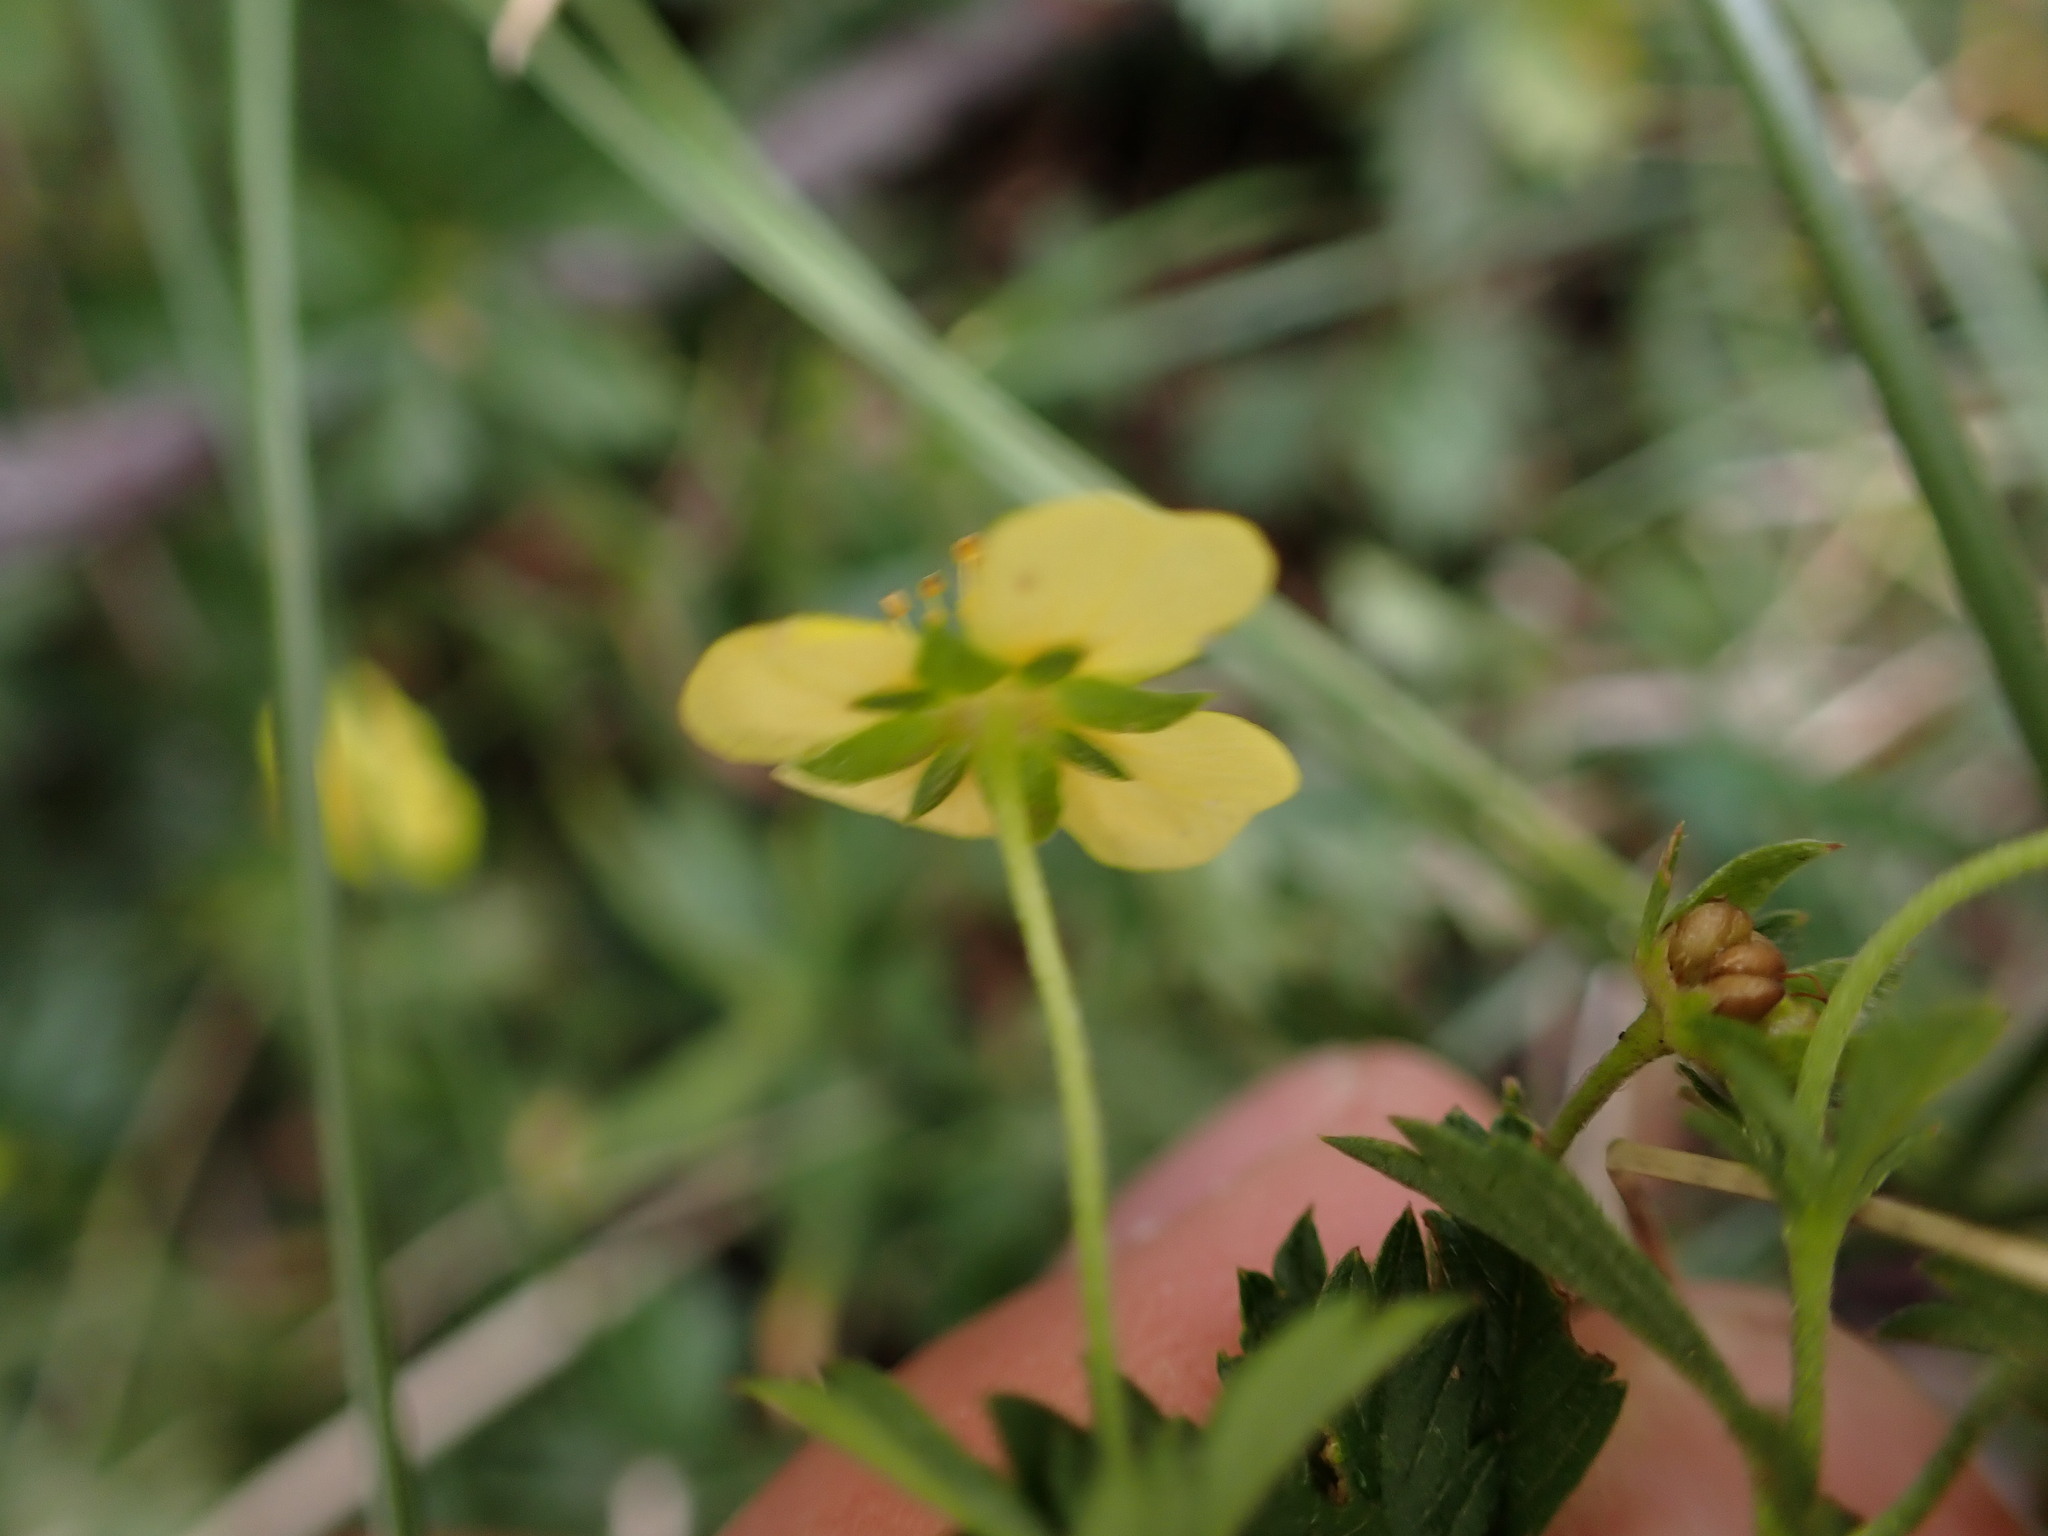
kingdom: Plantae
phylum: Tracheophyta
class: Magnoliopsida
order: Rosales
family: Rosaceae
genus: Potentilla
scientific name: Potentilla erecta
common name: Tormentil
